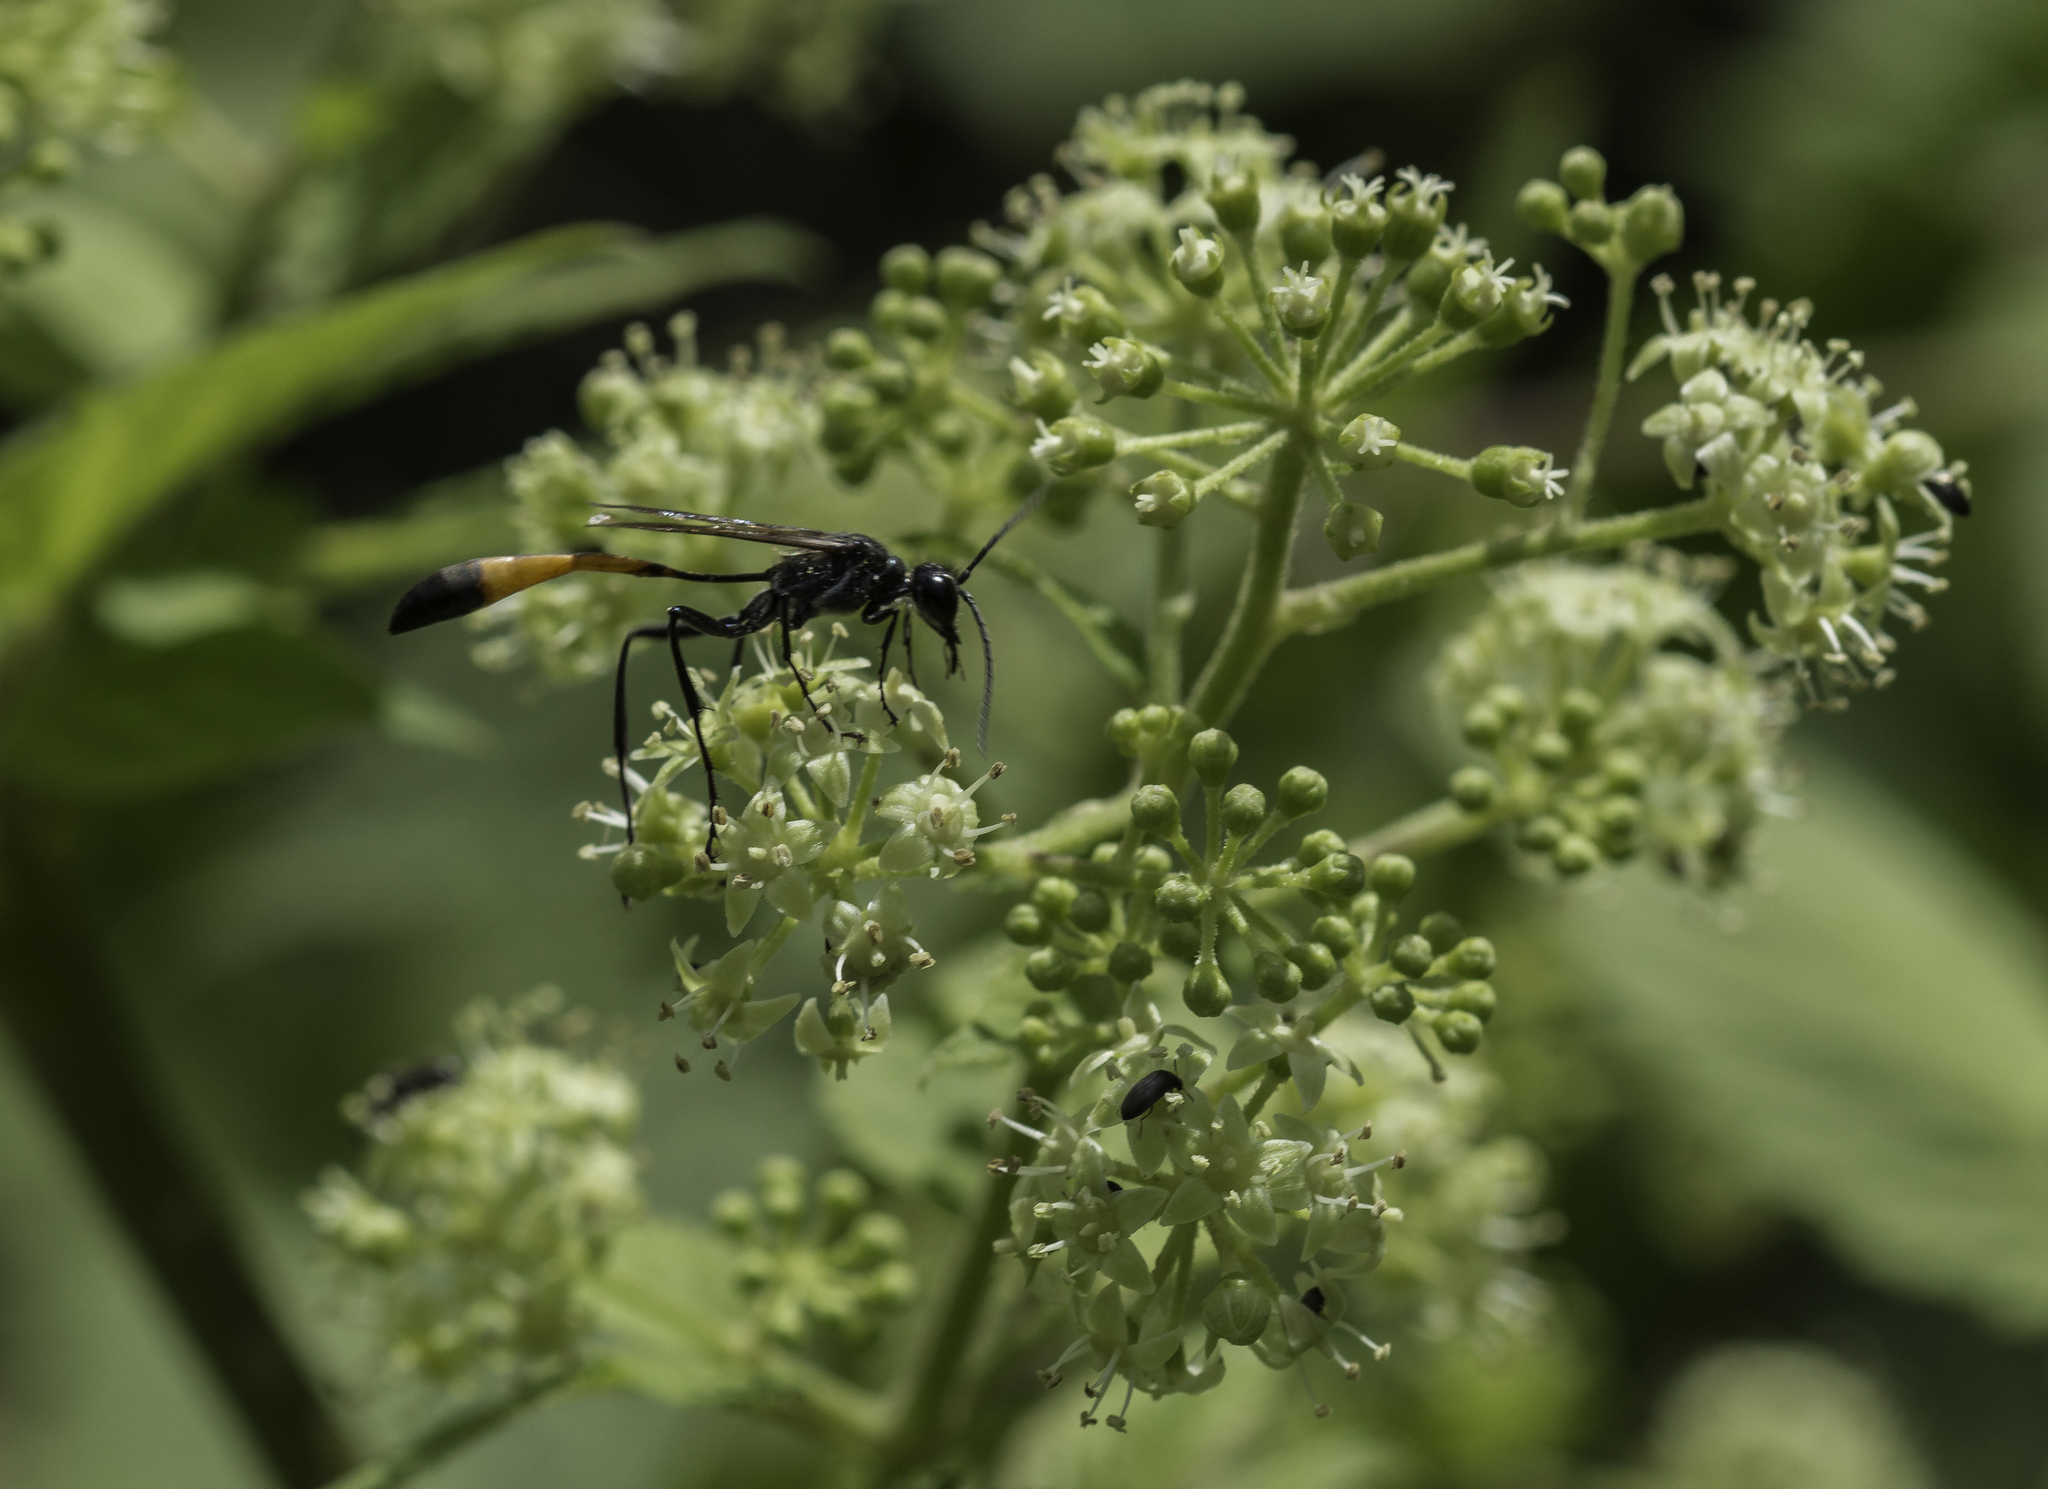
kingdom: Plantae
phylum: Tracheophyta
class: Magnoliopsida
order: Apiales
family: Araliaceae
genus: Aralia
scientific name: Aralia bicrenata
